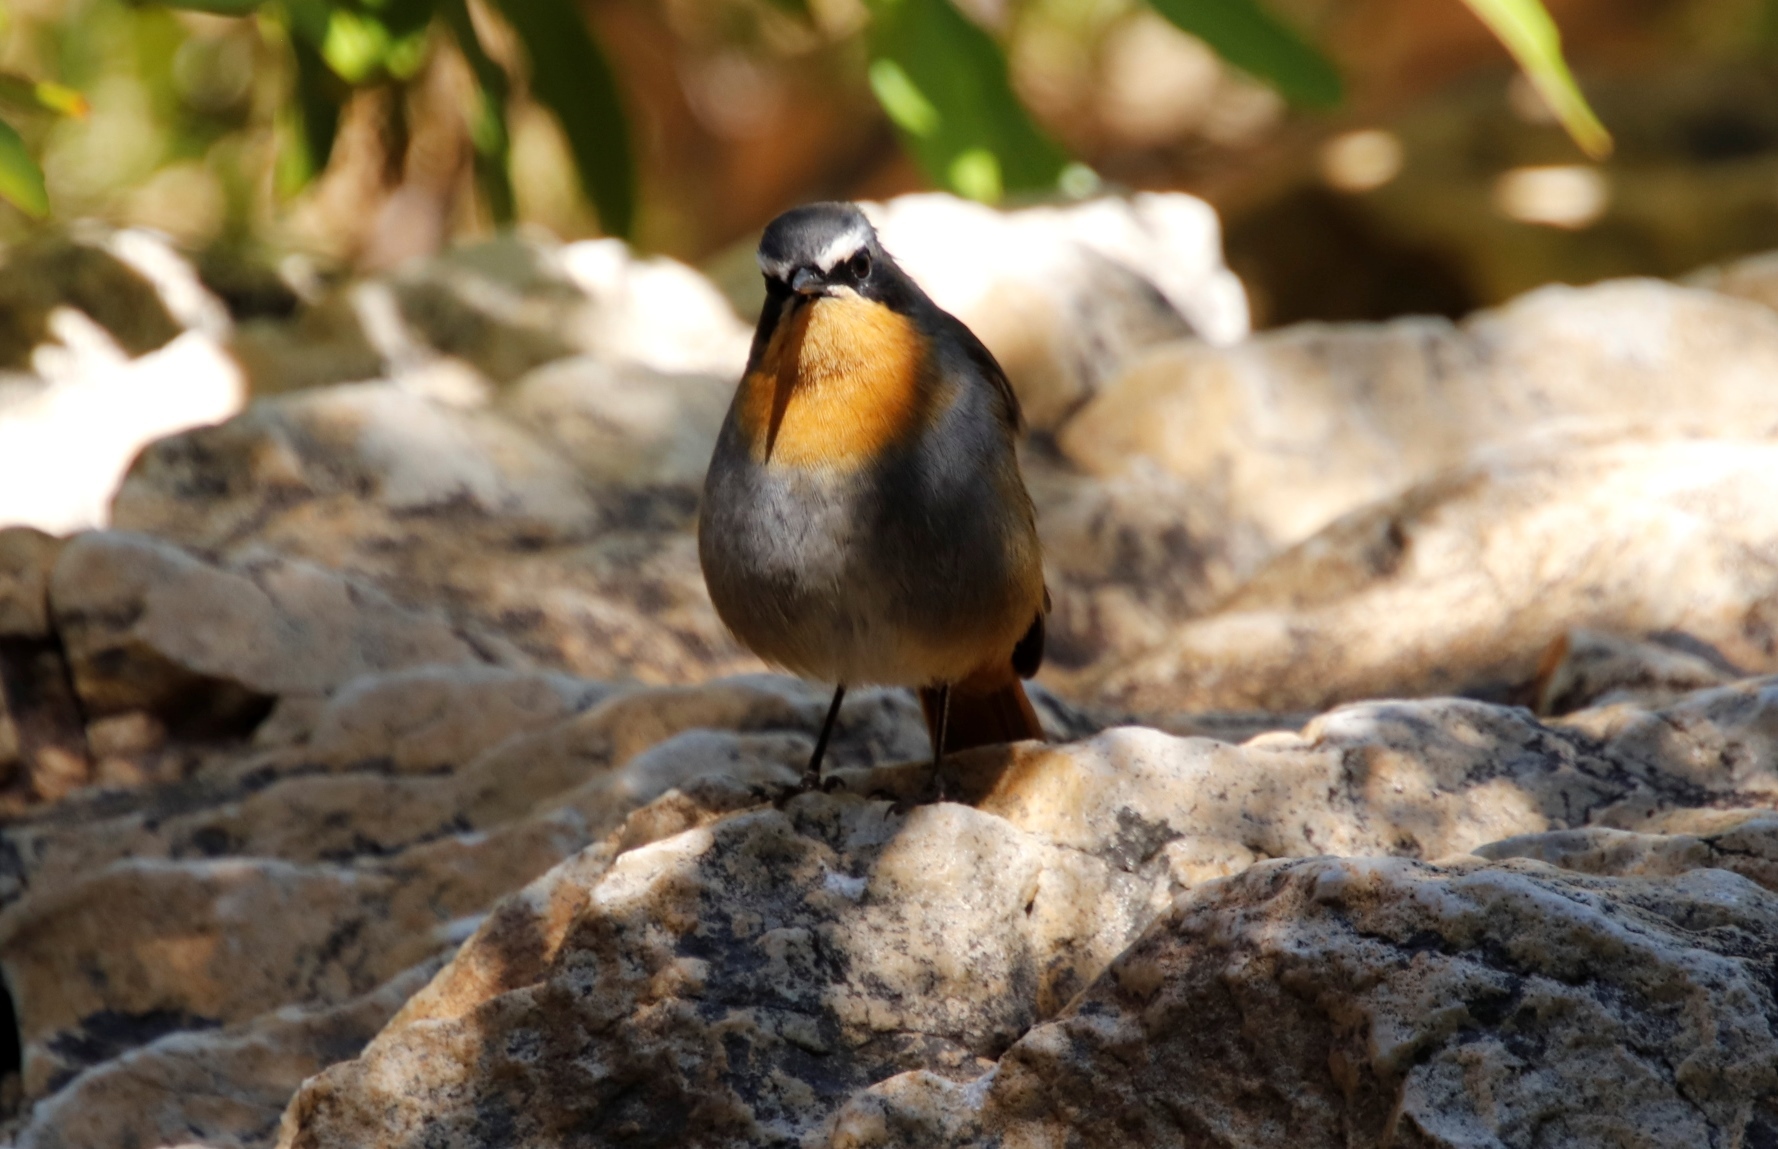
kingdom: Animalia
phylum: Chordata
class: Aves
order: Passeriformes
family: Muscicapidae
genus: Cossypha
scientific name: Cossypha caffra
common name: Cape robin-chat
